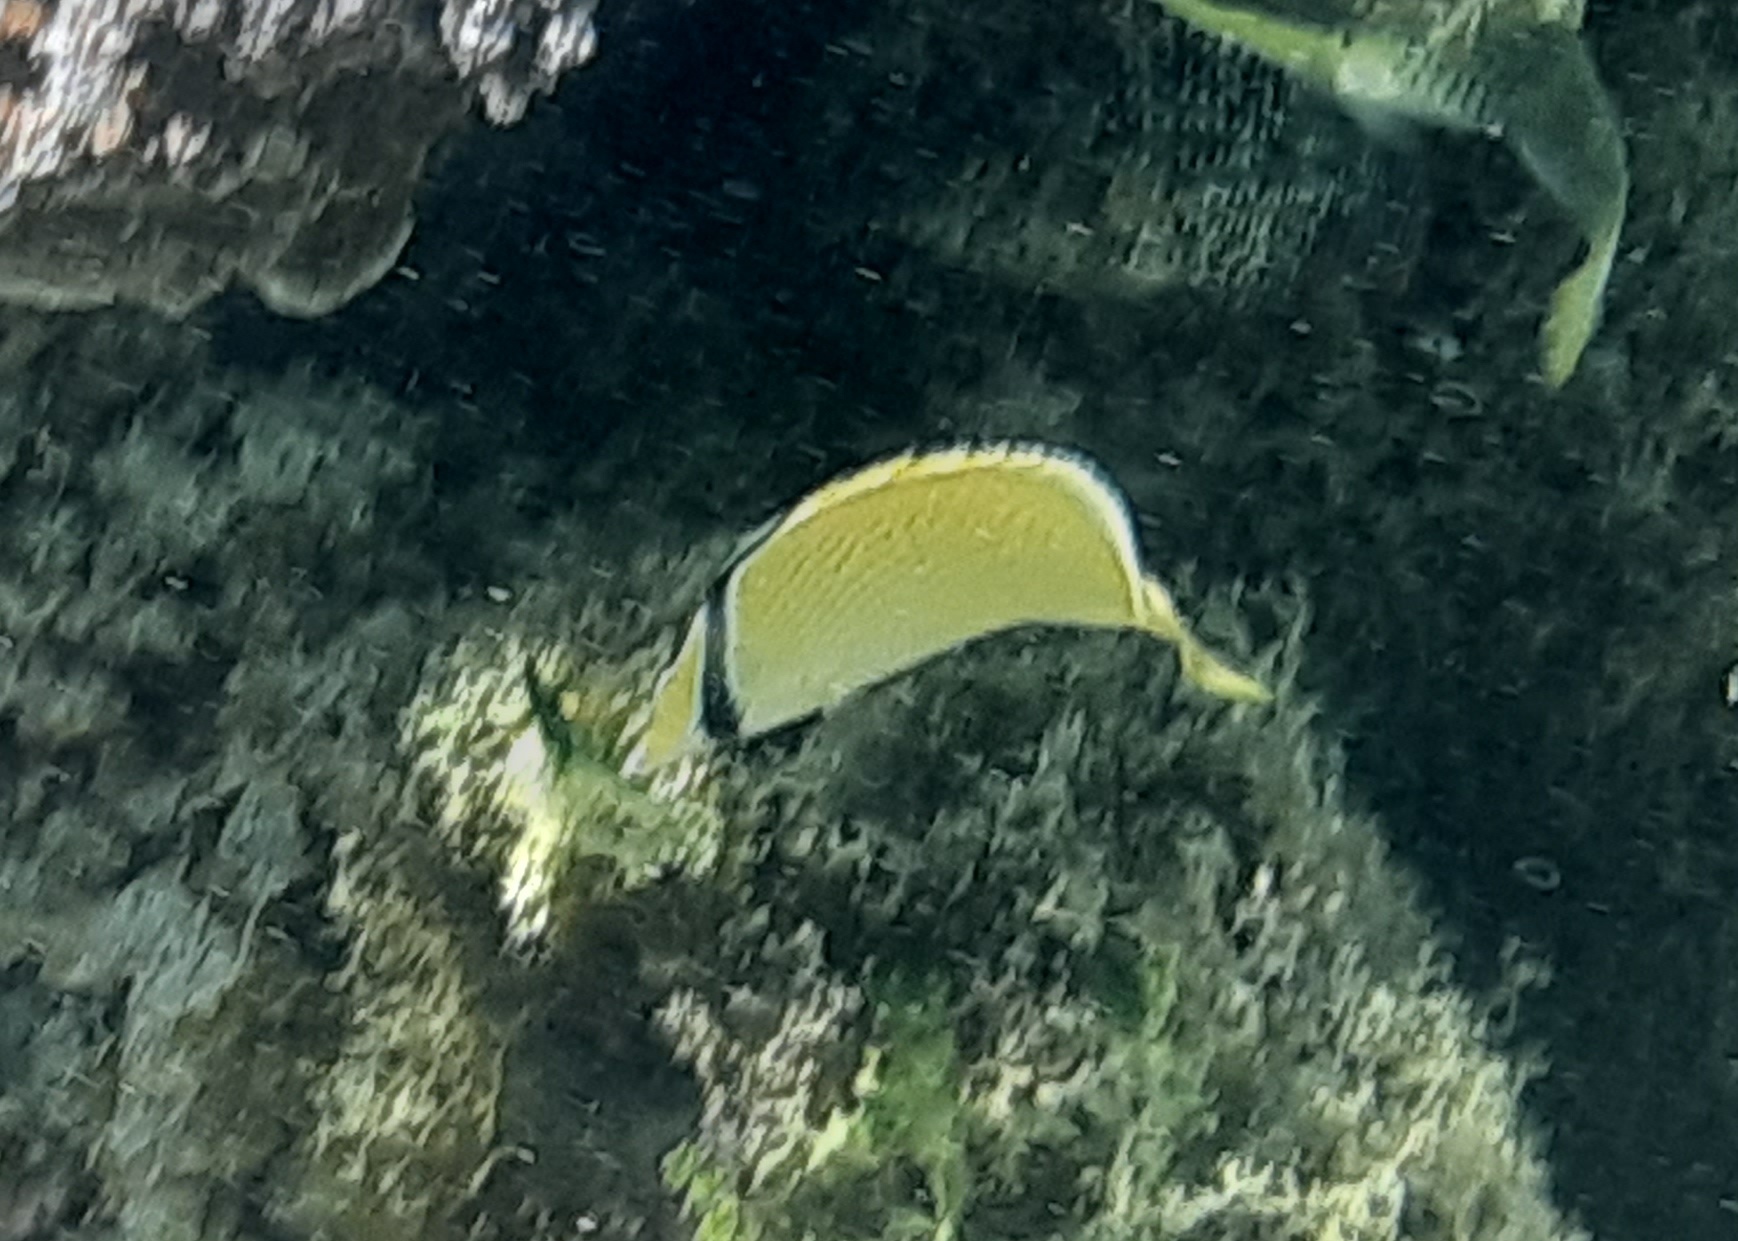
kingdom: Animalia
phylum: Chordata
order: Perciformes
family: Chaetodontidae
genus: Chaetodon
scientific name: Chaetodon citrinellus
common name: Speckled butterflyfish
